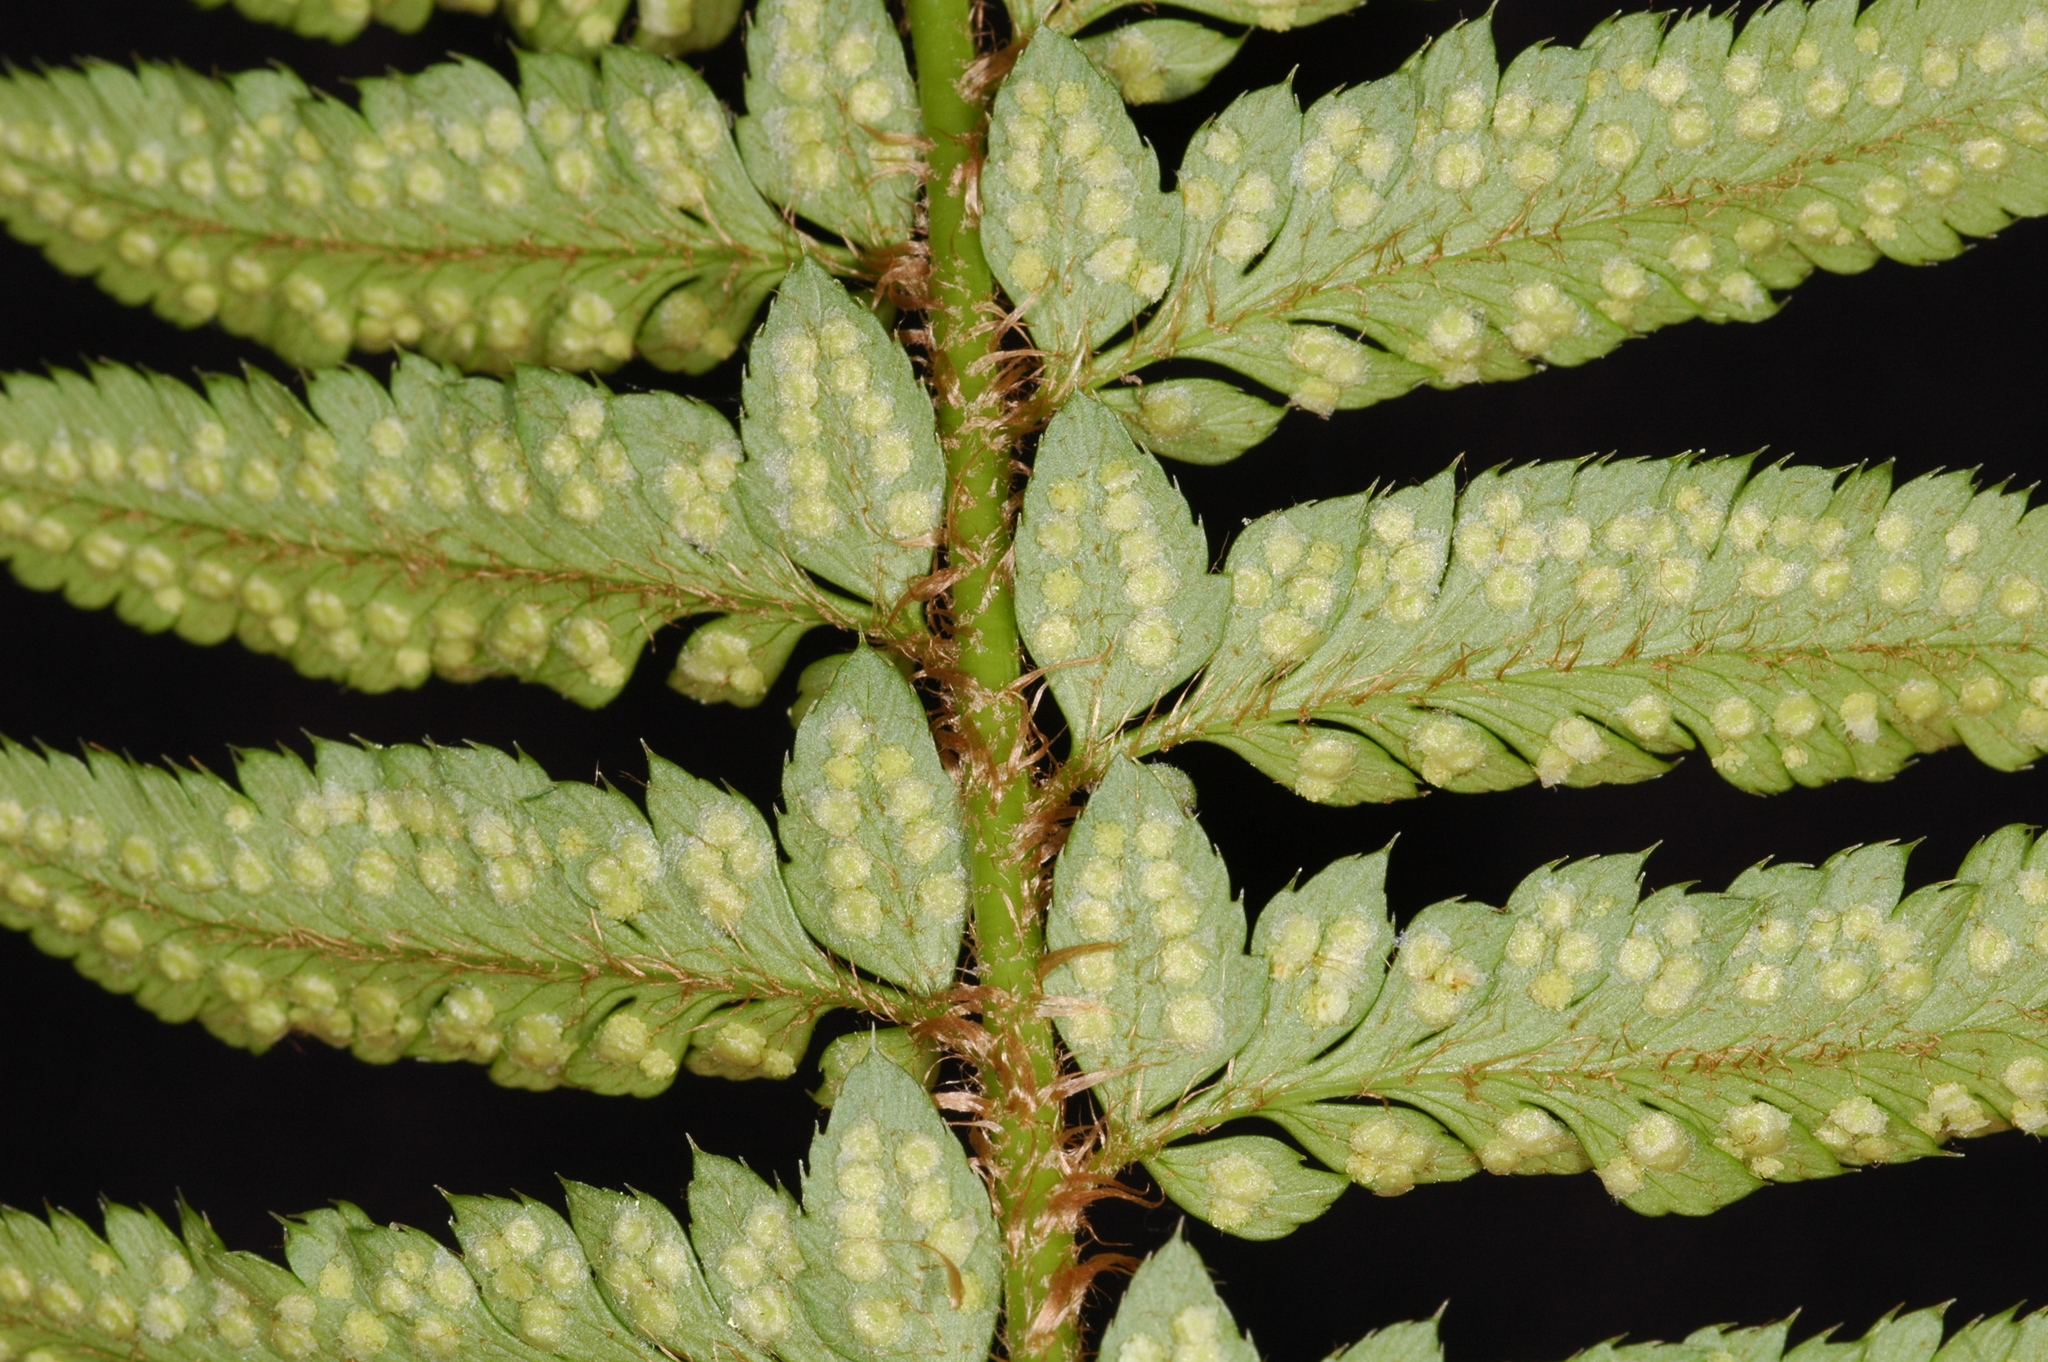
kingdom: Plantae
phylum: Tracheophyta
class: Polypodiopsida
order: Polypodiales
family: Dryopteridaceae
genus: Polystichum
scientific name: Polystichum californicum
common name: California sword fern
